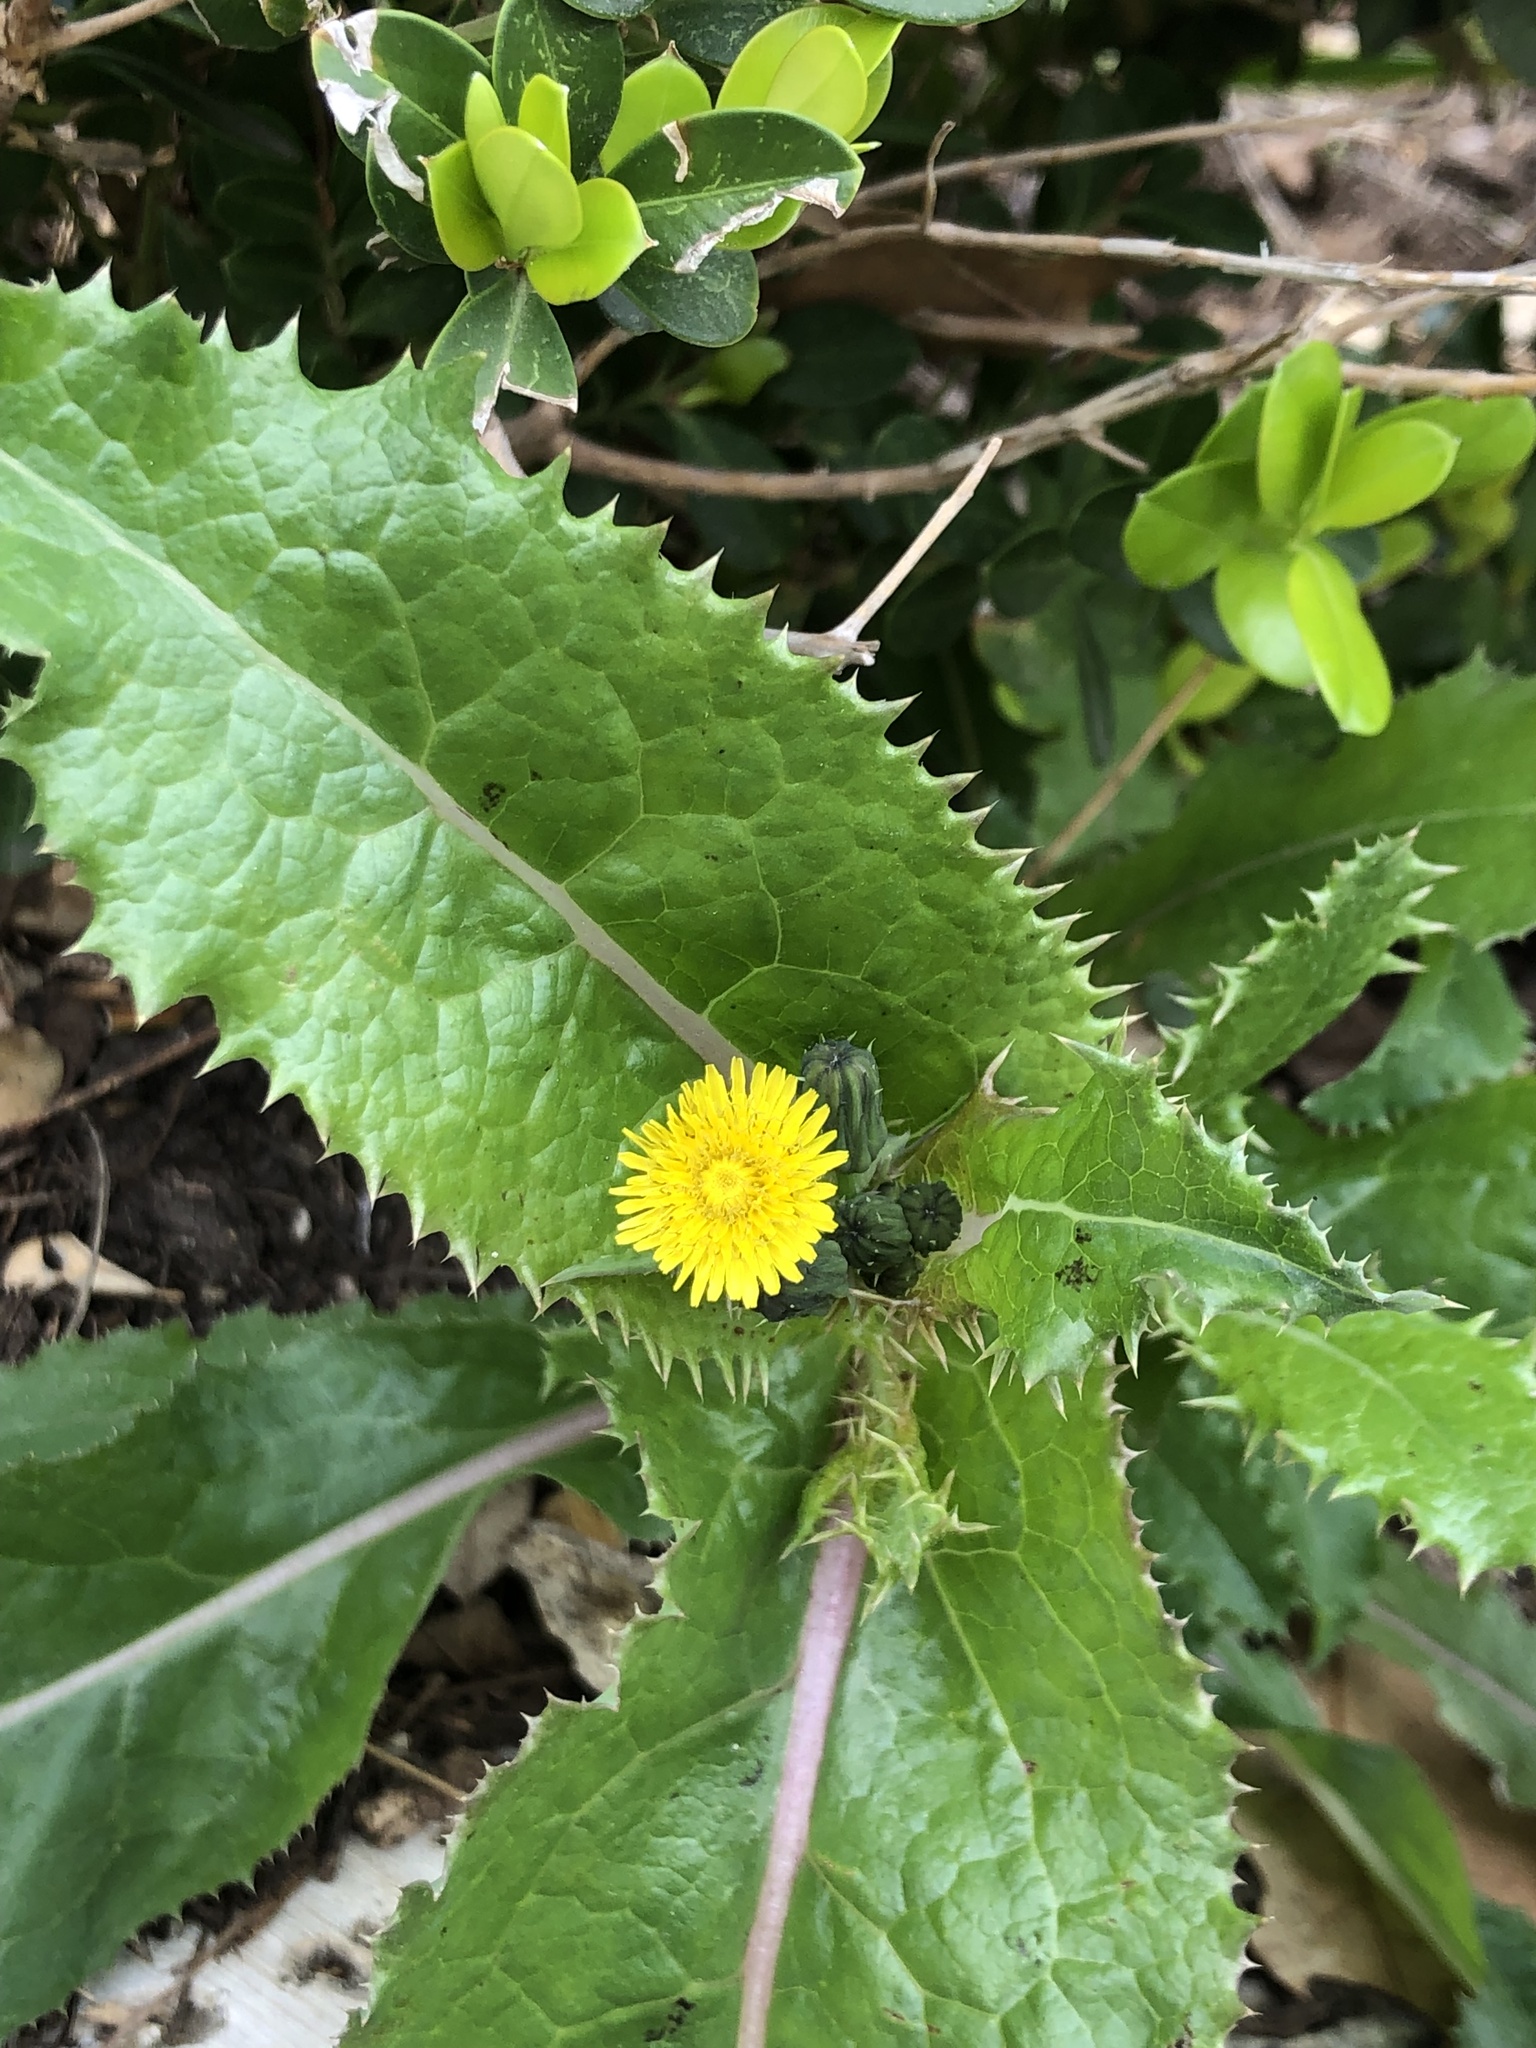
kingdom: Plantae
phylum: Tracheophyta
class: Magnoliopsida
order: Asterales
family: Asteraceae
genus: Sonchus
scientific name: Sonchus asper
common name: Prickly sow-thistle
